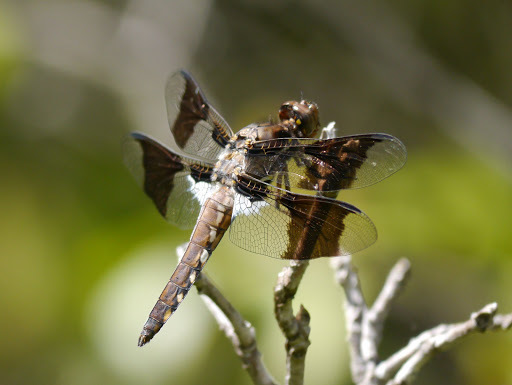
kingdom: Animalia
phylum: Arthropoda
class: Insecta
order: Odonata
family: Libellulidae
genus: Plathemis
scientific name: Plathemis lydia
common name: Common whitetail
